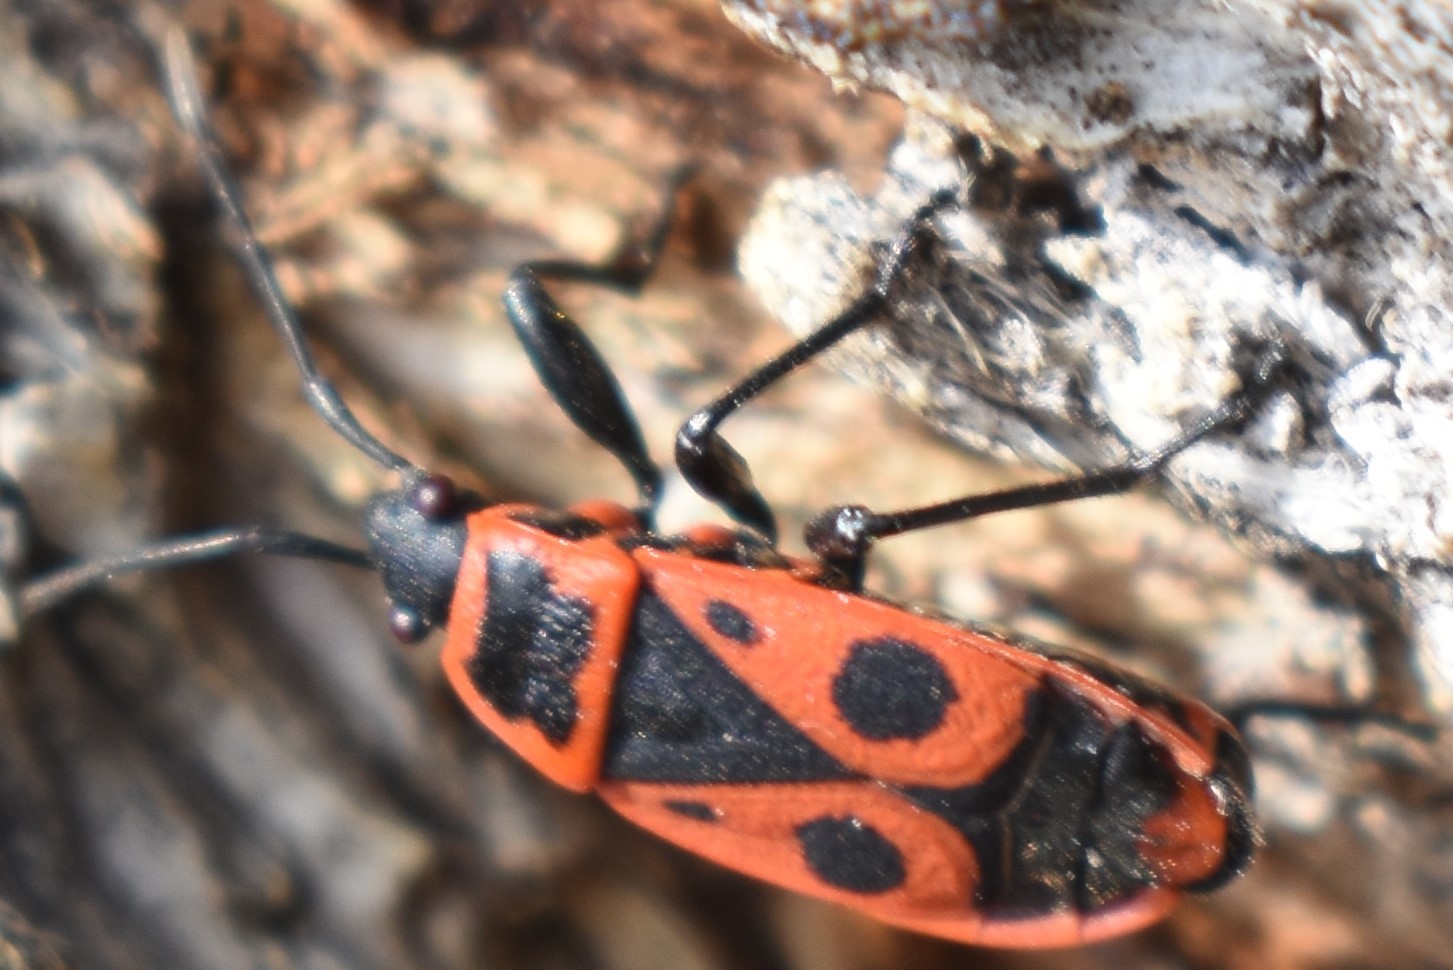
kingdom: Animalia
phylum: Arthropoda
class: Insecta
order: Hemiptera
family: Pyrrhocoridae
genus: Pyrrhocoris
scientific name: Pyrrhocoris apterus
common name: Firebug
